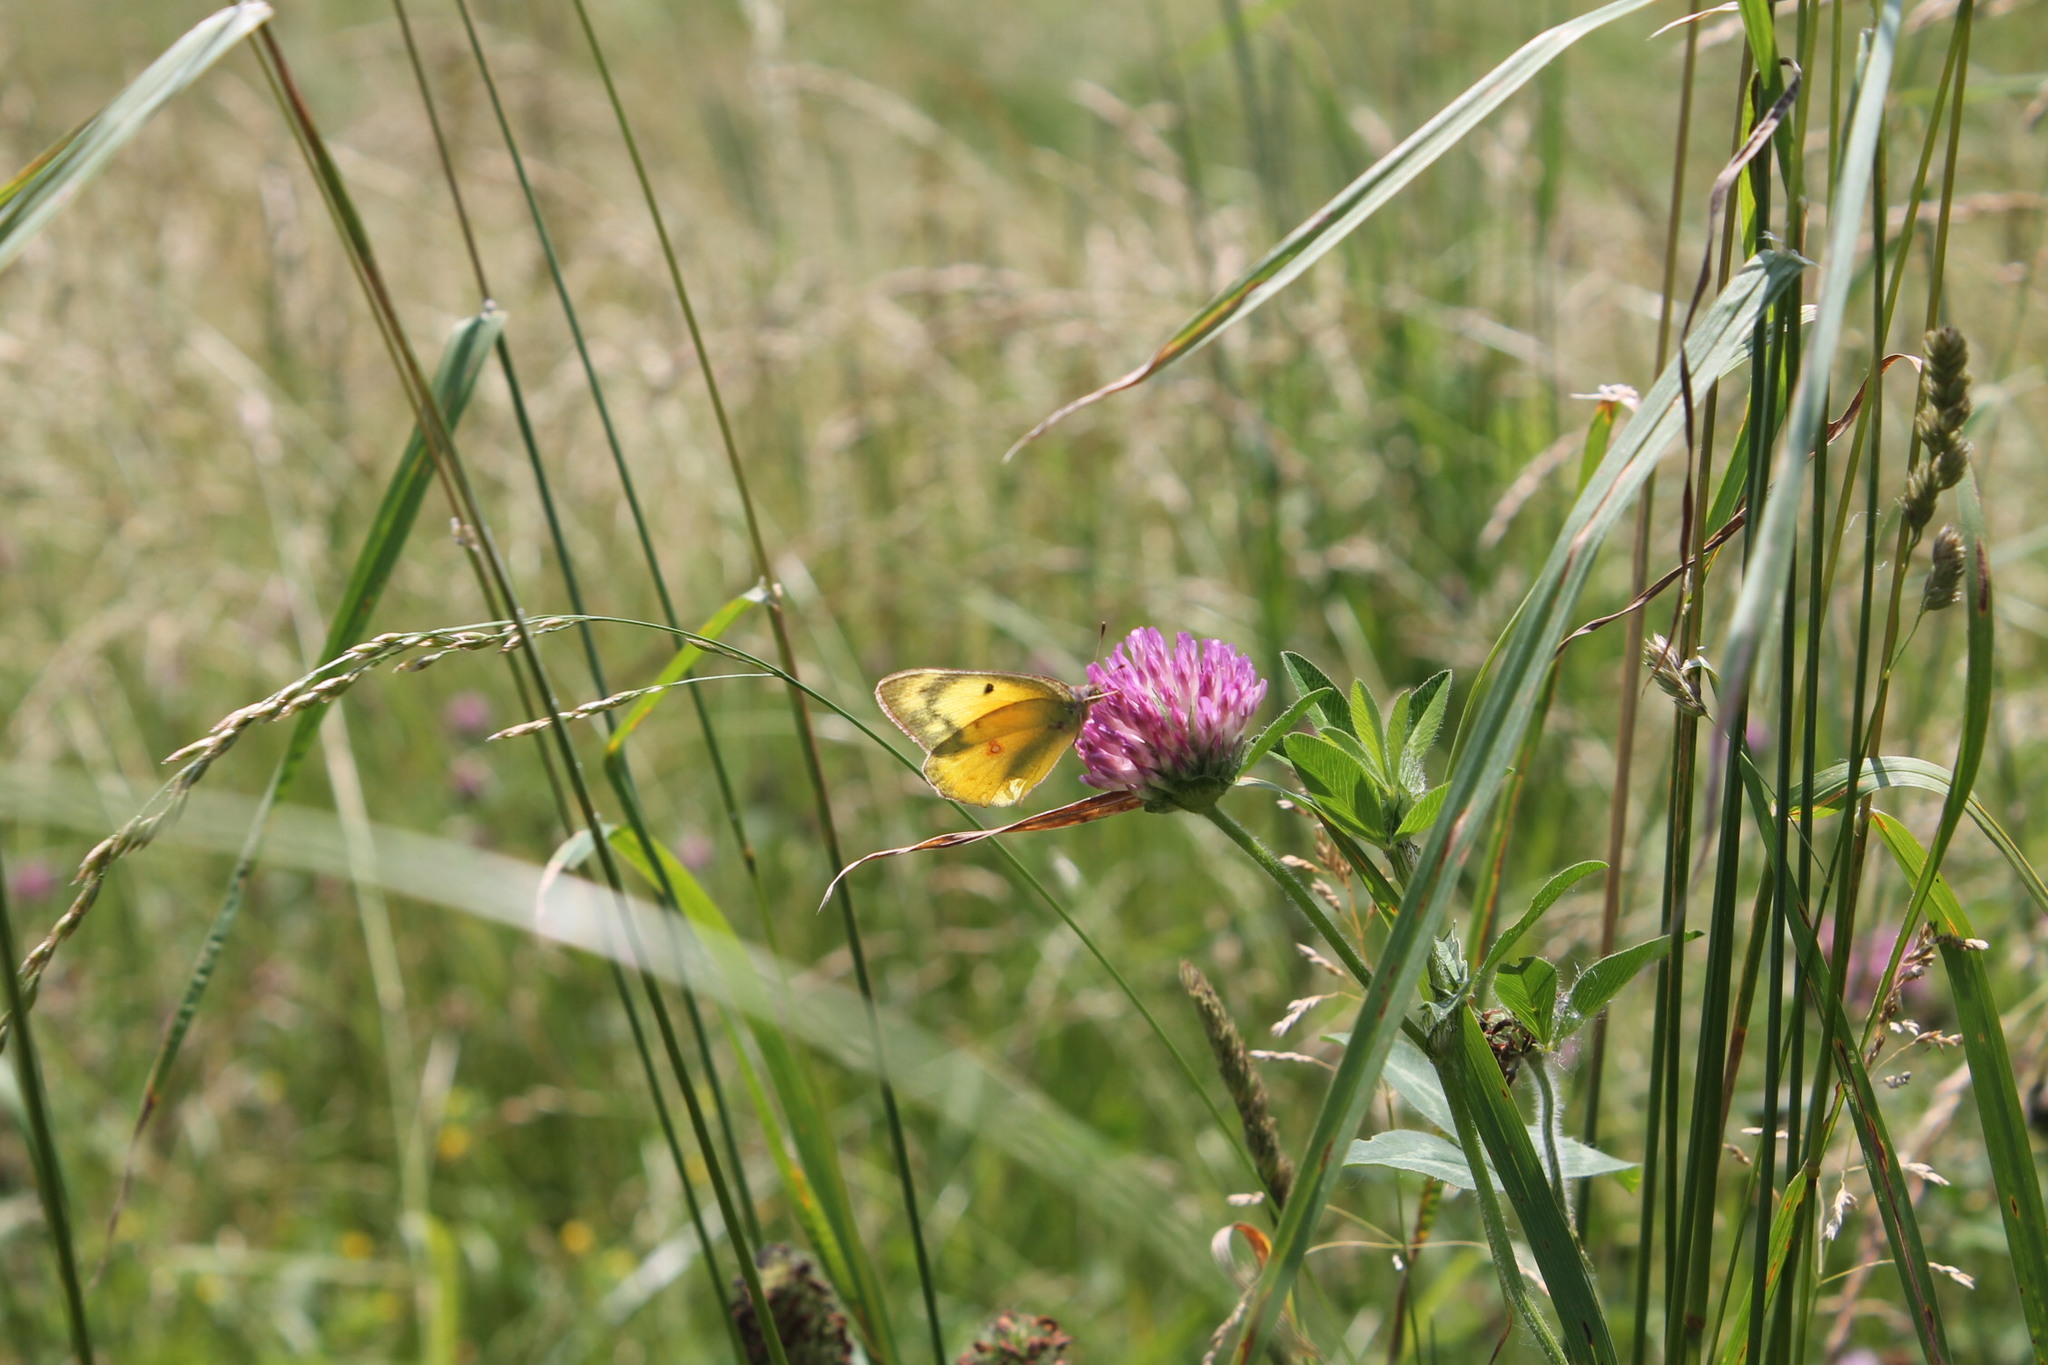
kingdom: Animalia
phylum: Arthropoda
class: Insecta
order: Lepidoptera
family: Pieridae
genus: Colias
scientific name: Colias eurytheme
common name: Alfalfa butterfly
